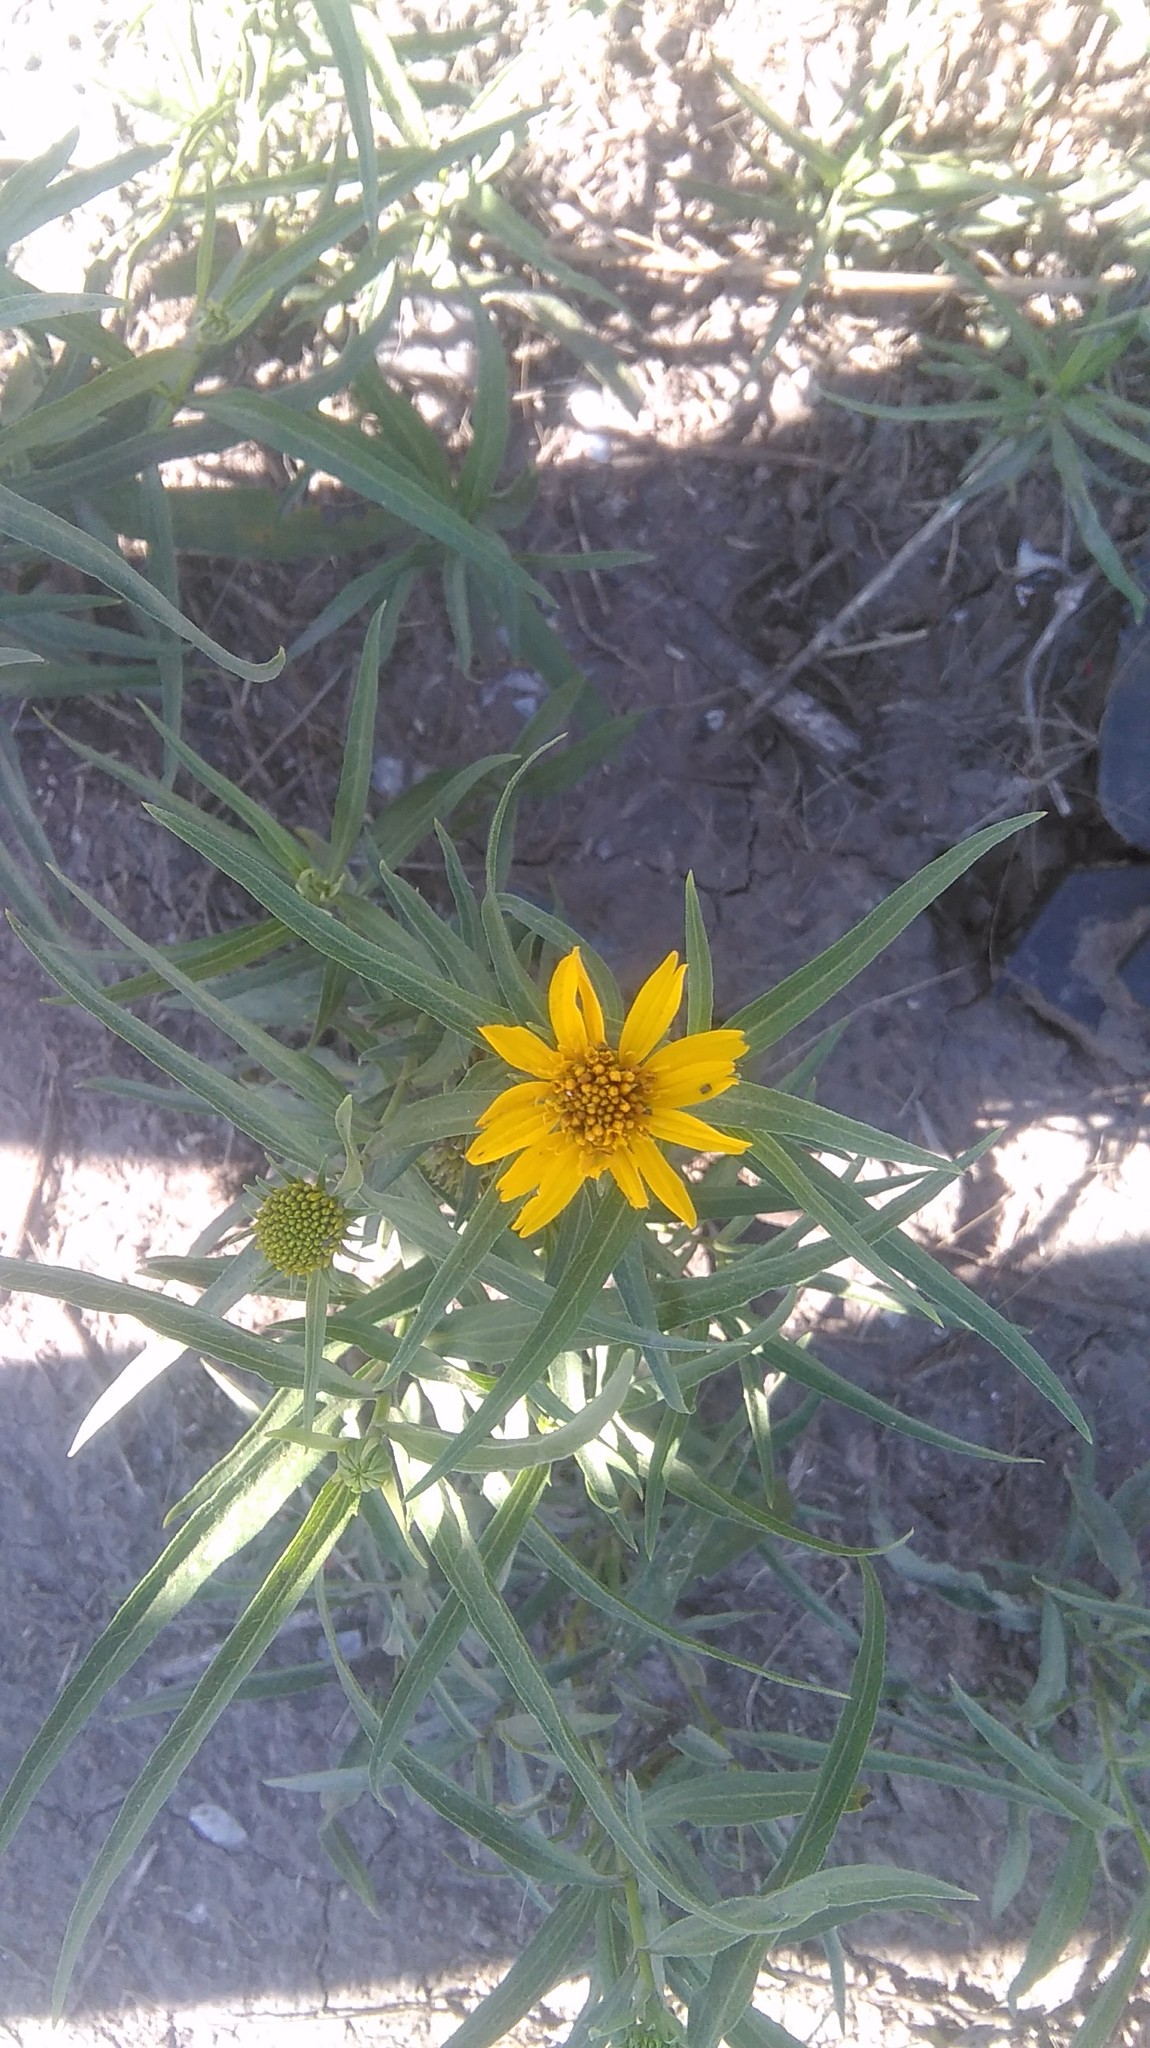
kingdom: Plantae
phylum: Tracheophyta
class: Magnoliopsida
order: Asterales
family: Asteraceae
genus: Pascalia
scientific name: Pascalia glauca
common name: Beach creeping oxeye
